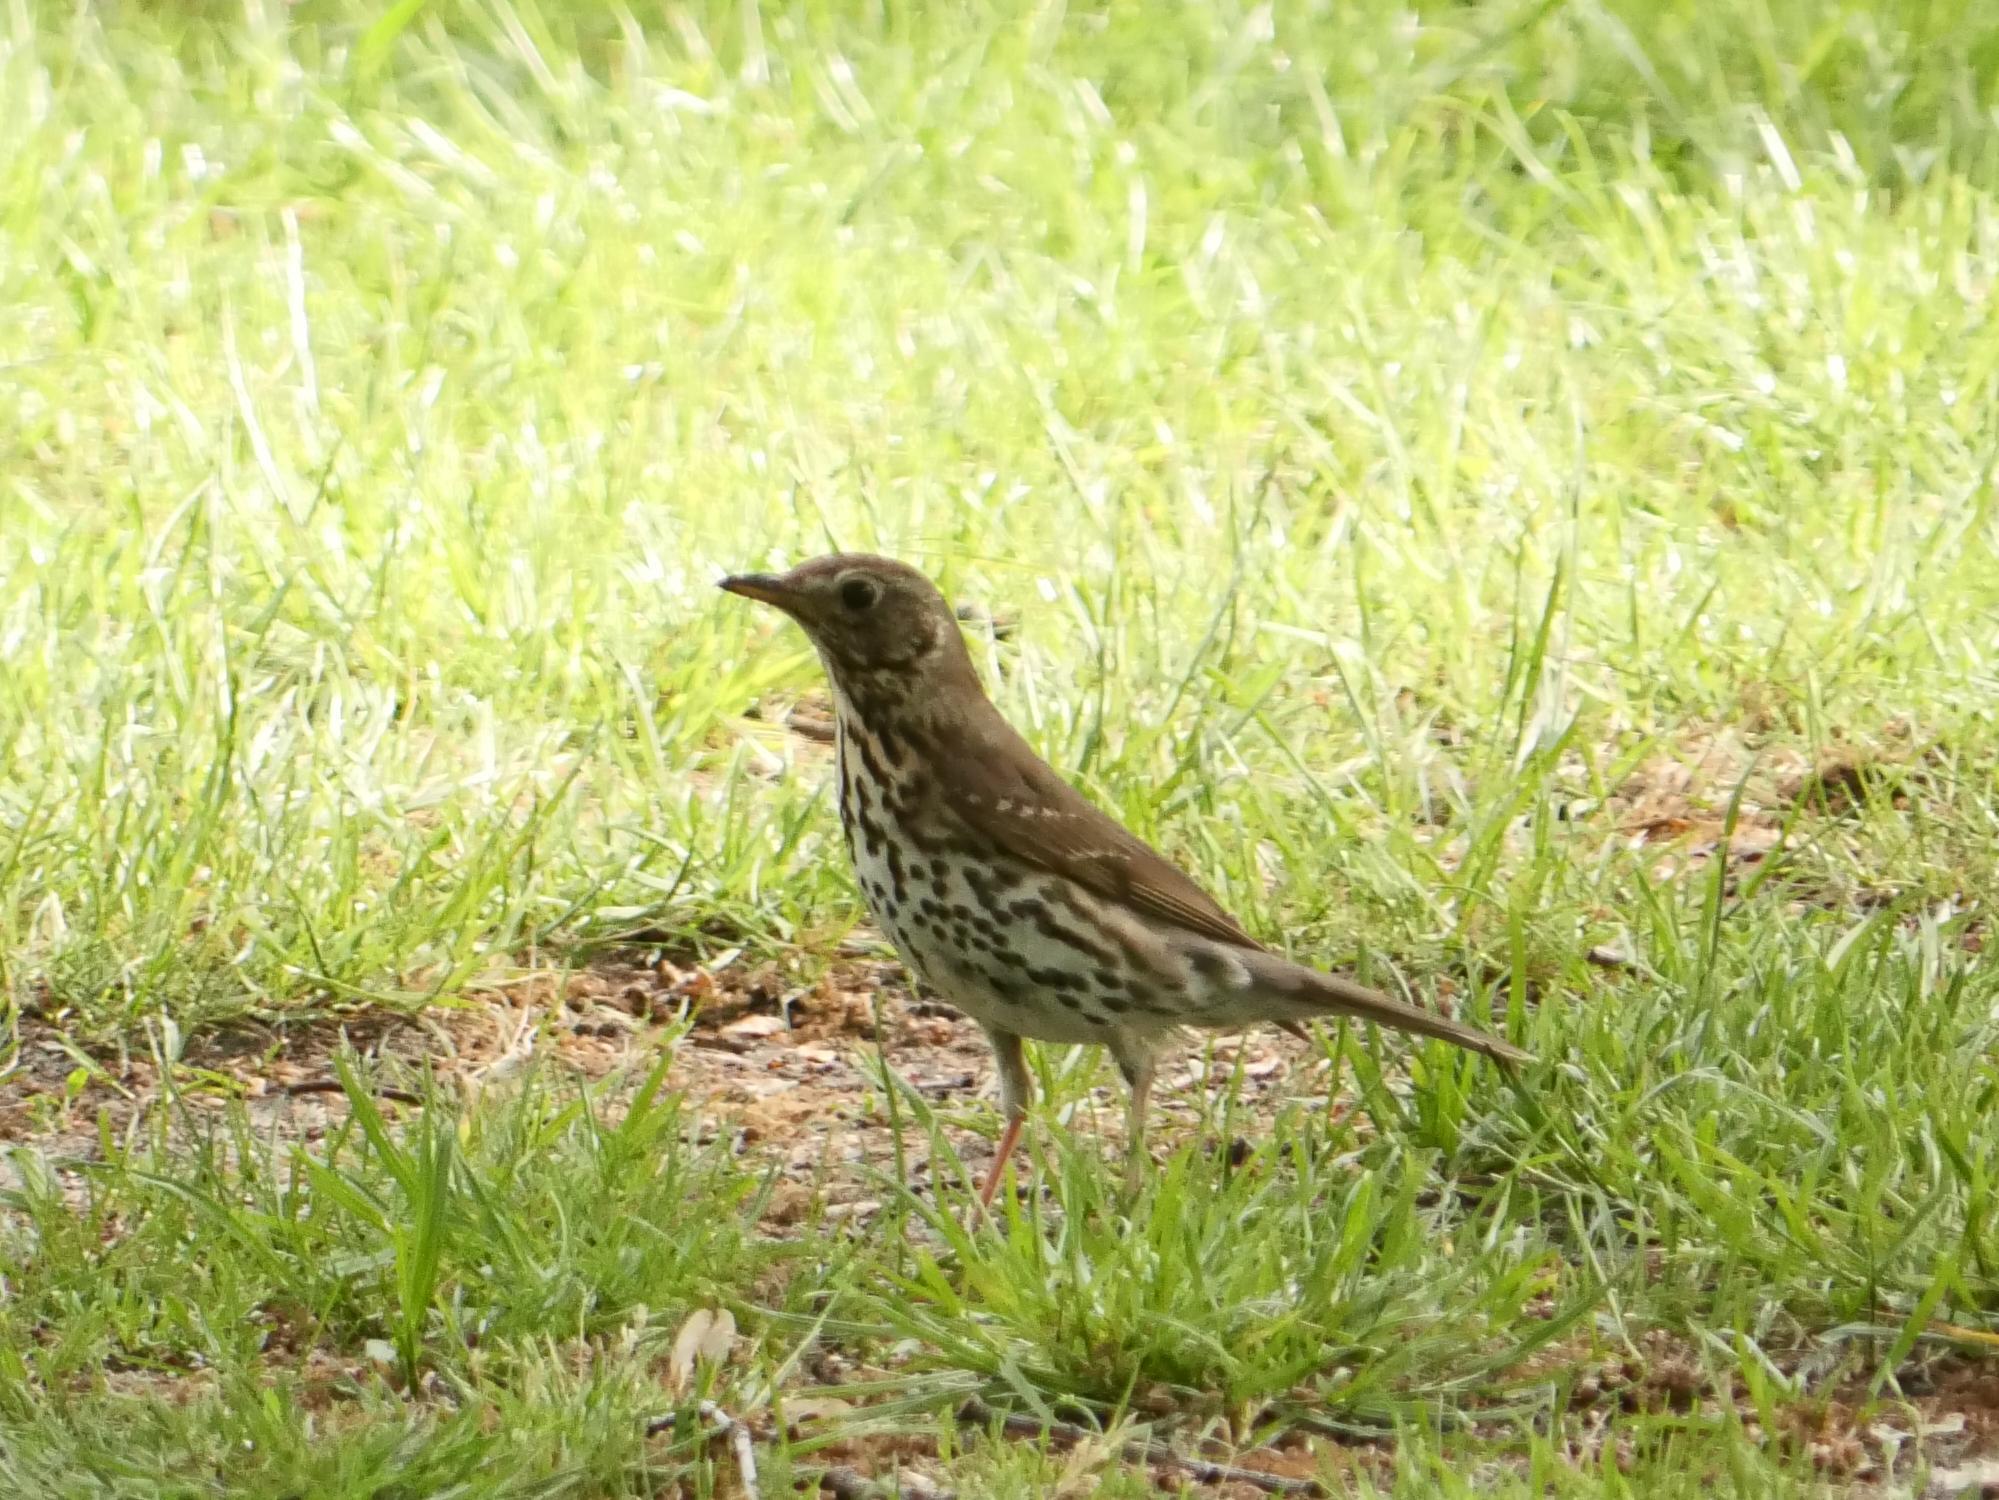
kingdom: Animalia
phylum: Chordata
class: Aves
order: Passeriformes
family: Turdidae
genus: Turdus
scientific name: Turdus philomelos
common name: Song thrush
